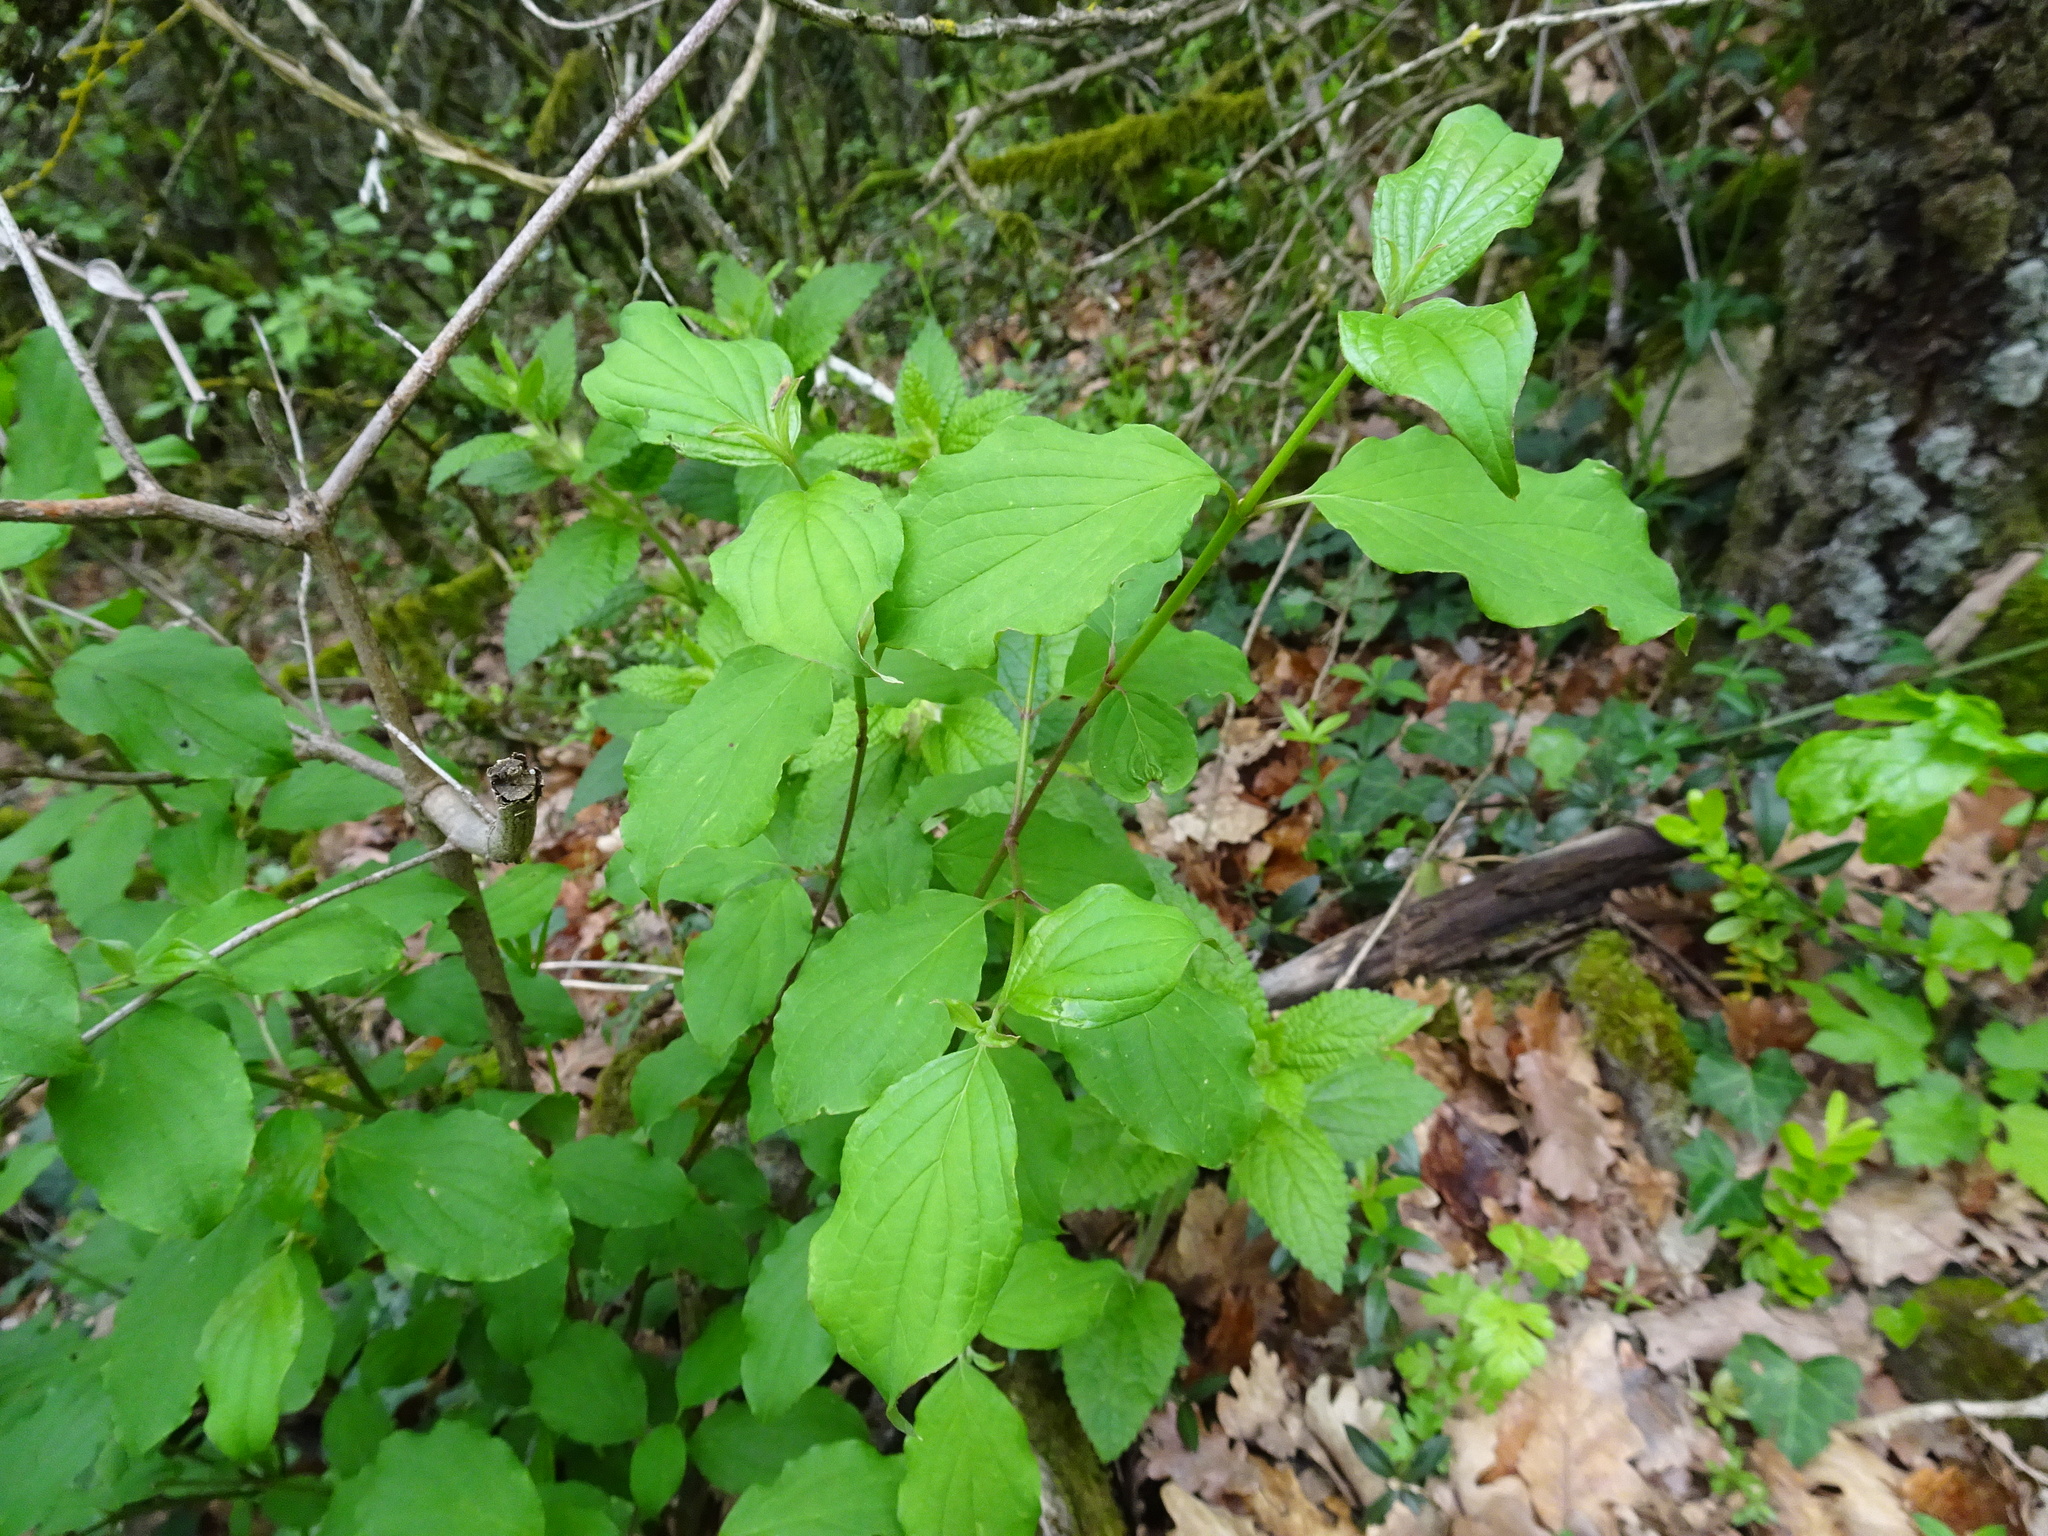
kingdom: Plantae
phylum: Tracheophyta
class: Magnoliopsida
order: Cornales
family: Cornaceae
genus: Cornus
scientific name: Cornus sanguinea
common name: Dogwood
